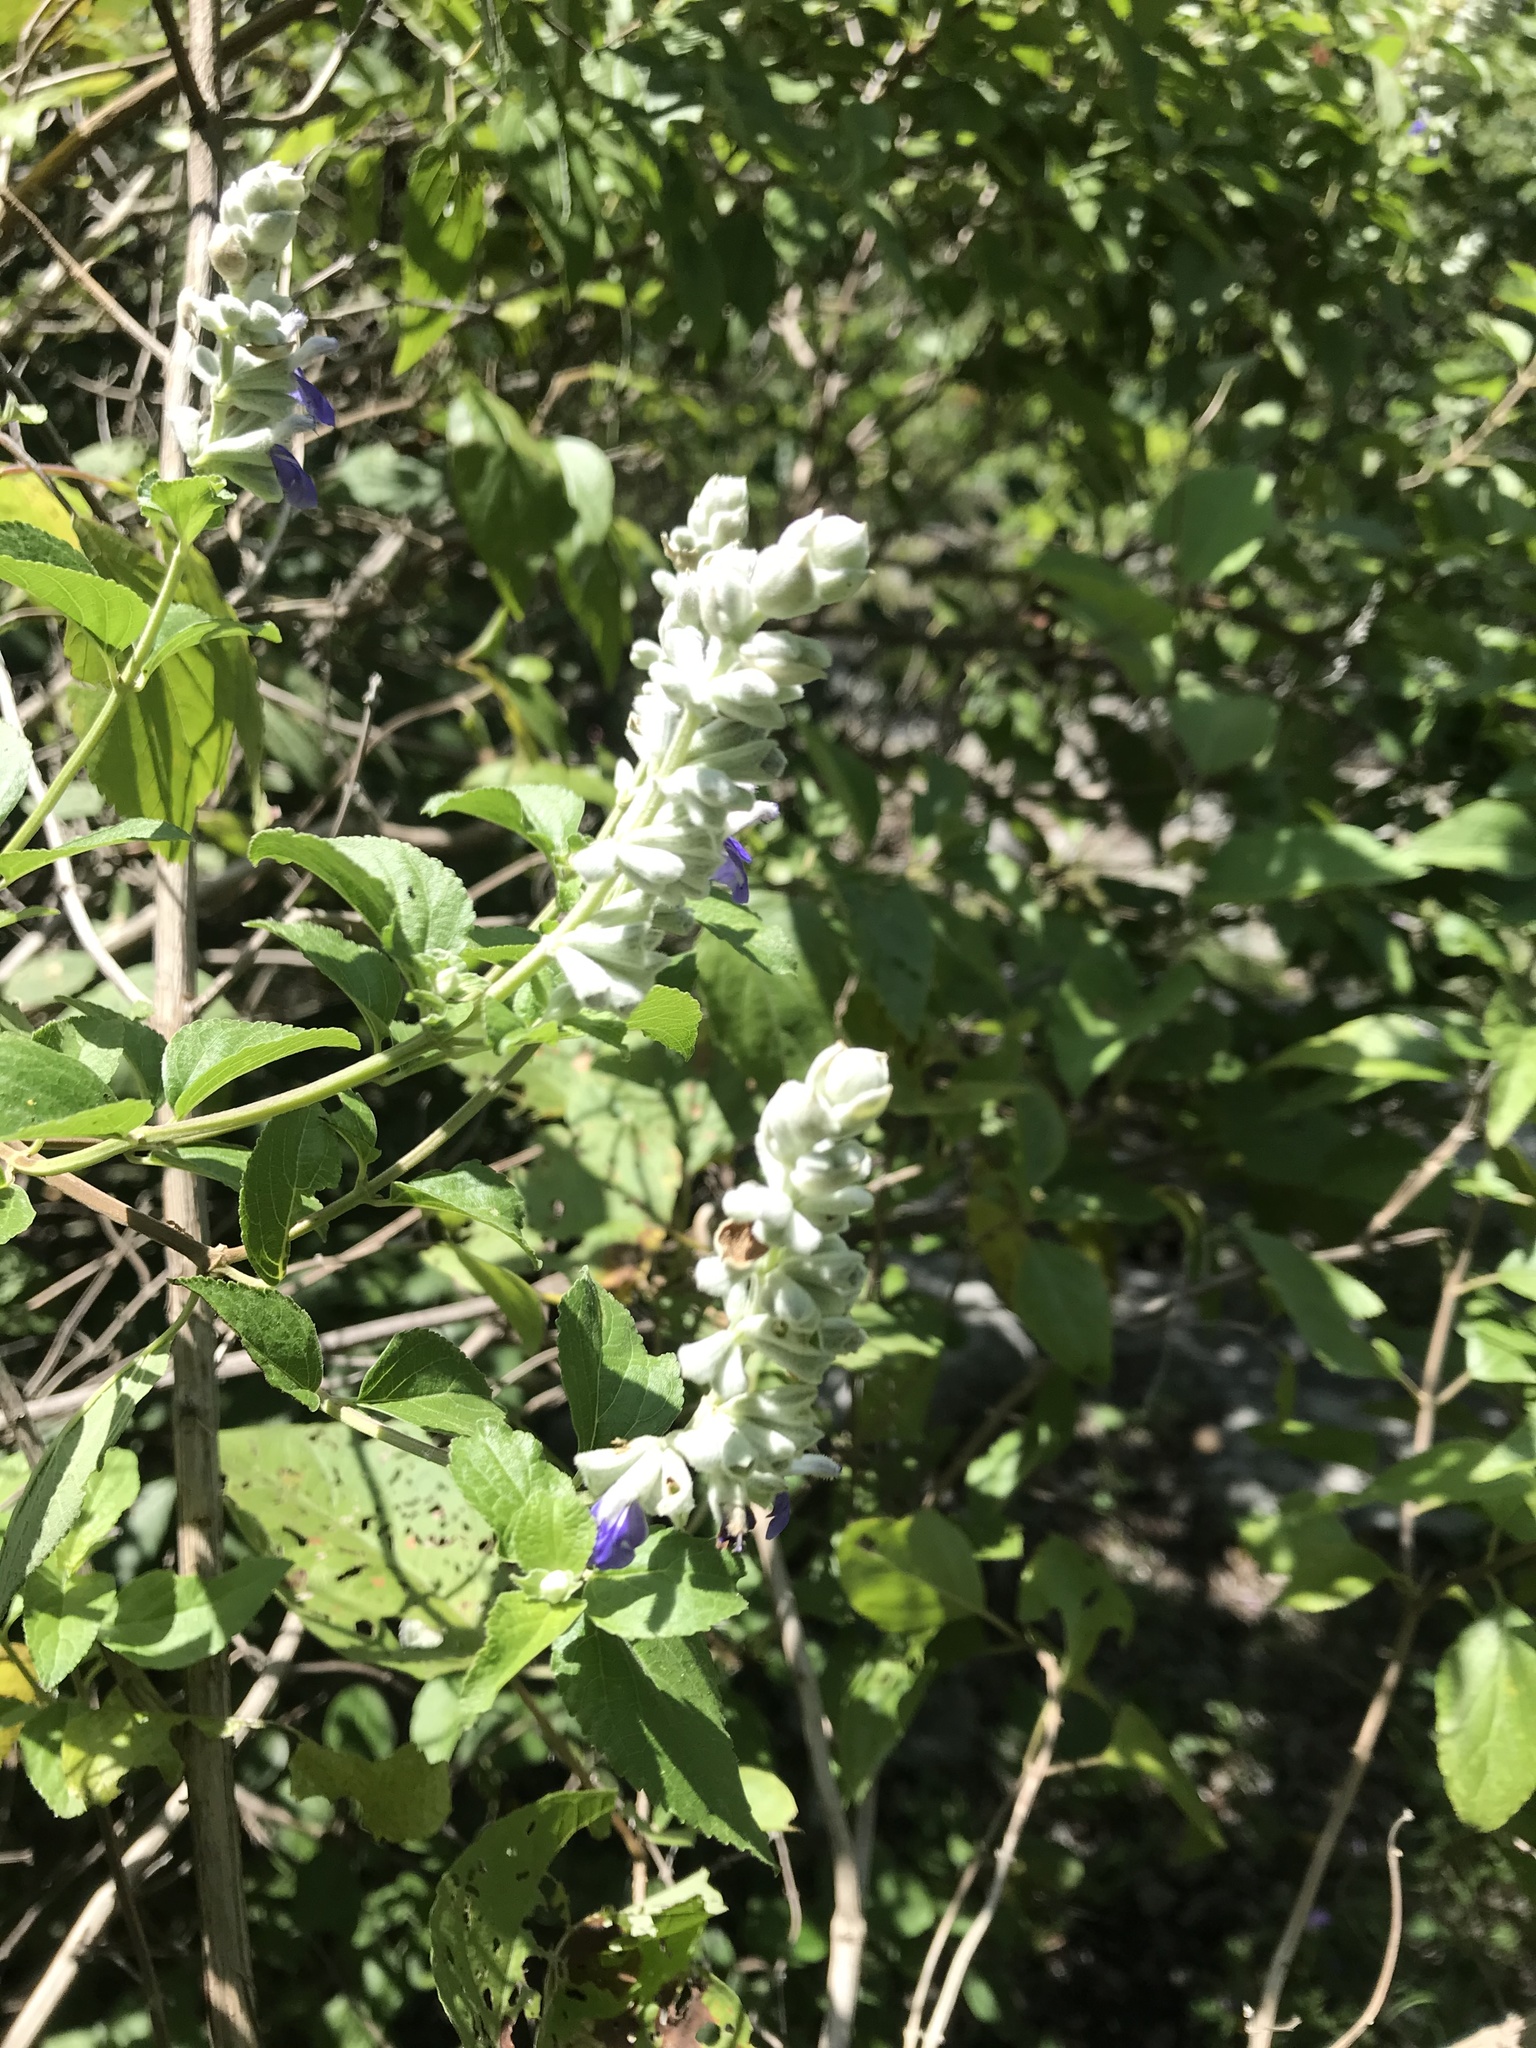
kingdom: Plantae
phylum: Tracheophyta
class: Magnoliopsida
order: Lamiales
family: Lamiaceae
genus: Salvia
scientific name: Salvia breviflora
